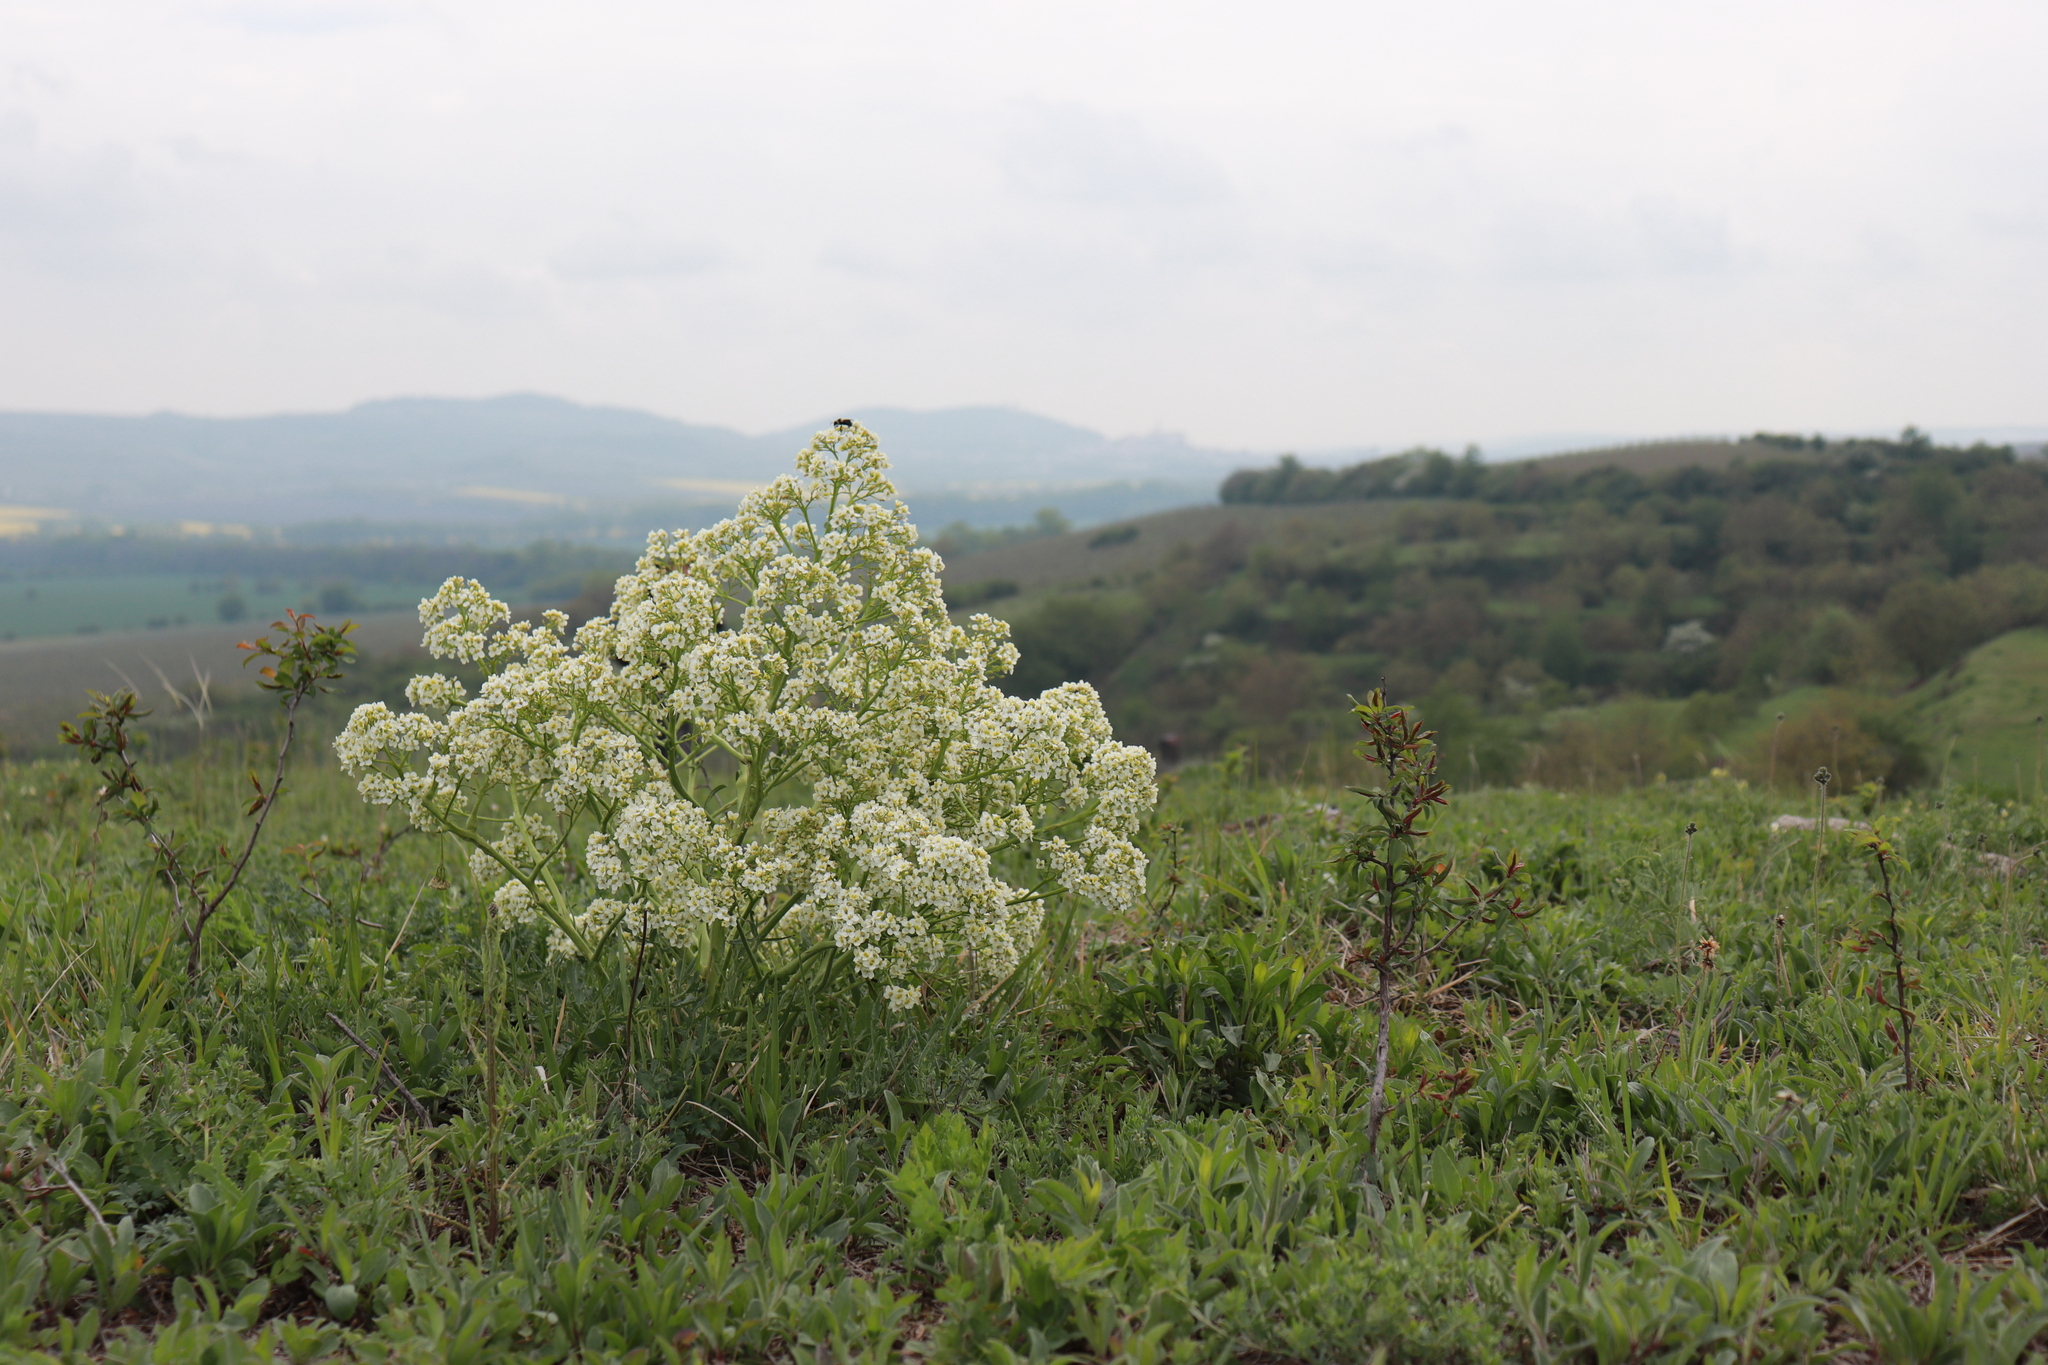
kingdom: Plantae
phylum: Tracheophyta
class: Magnoliopsida
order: Brassicales
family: Brassicaceae
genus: Crambe
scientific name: Crambe tataria
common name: Tartarian breadplant
